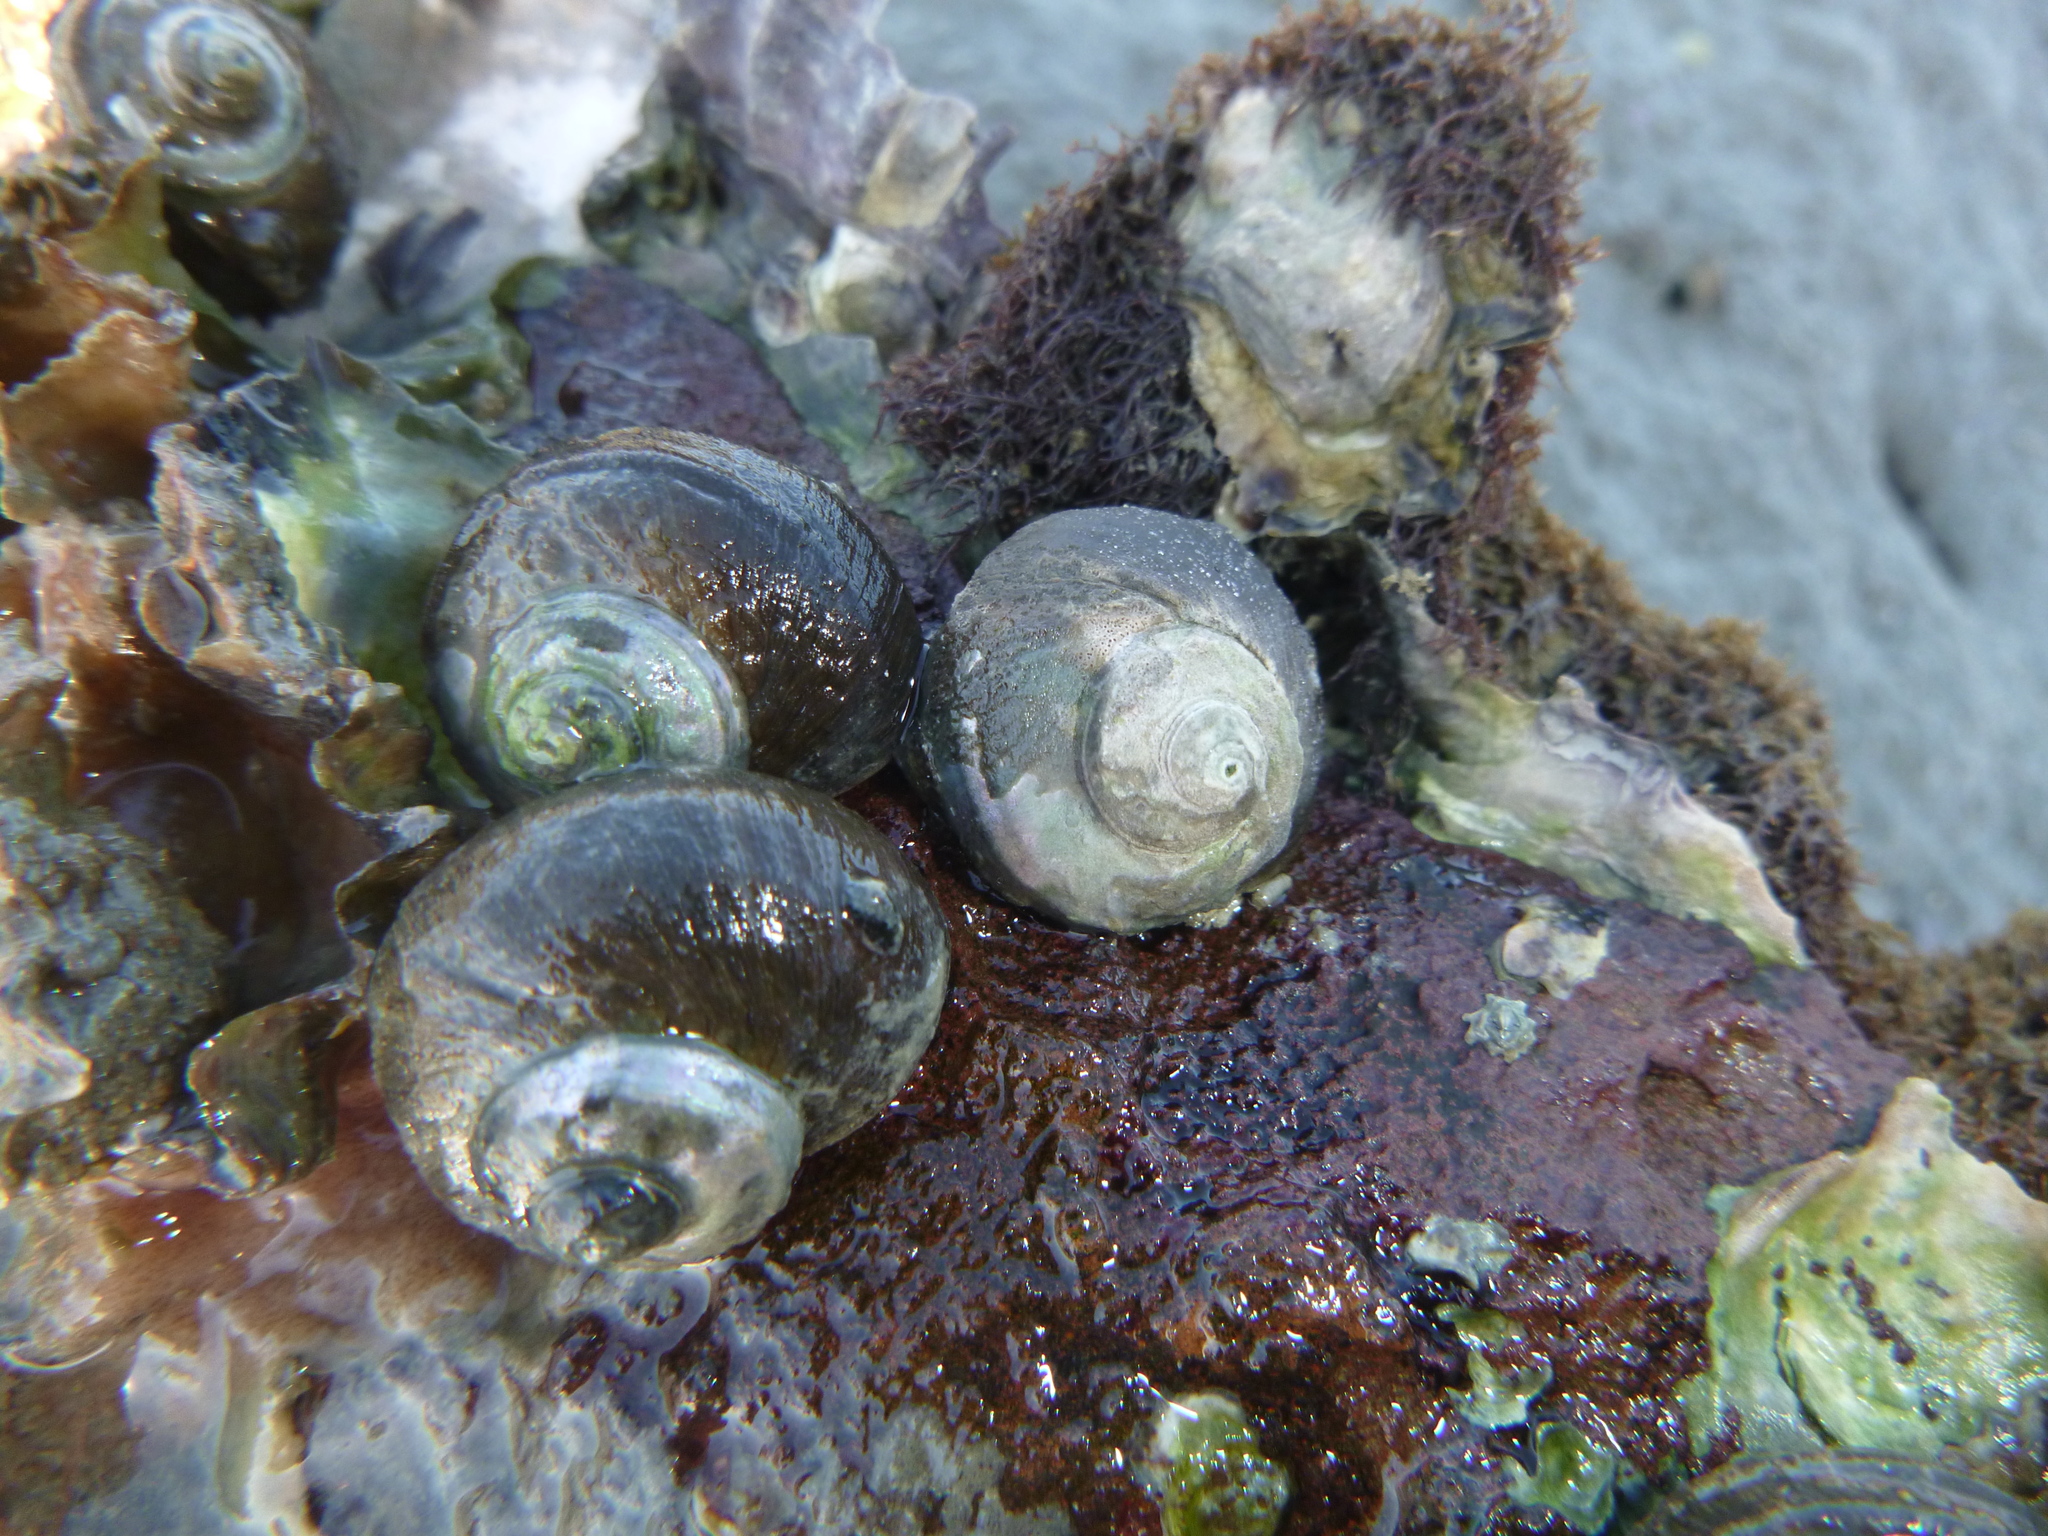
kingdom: Animalia
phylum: Mollusca
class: Gastropoda
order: Trochida
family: Turbinidae
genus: Lunella
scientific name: Lunella smaragda
